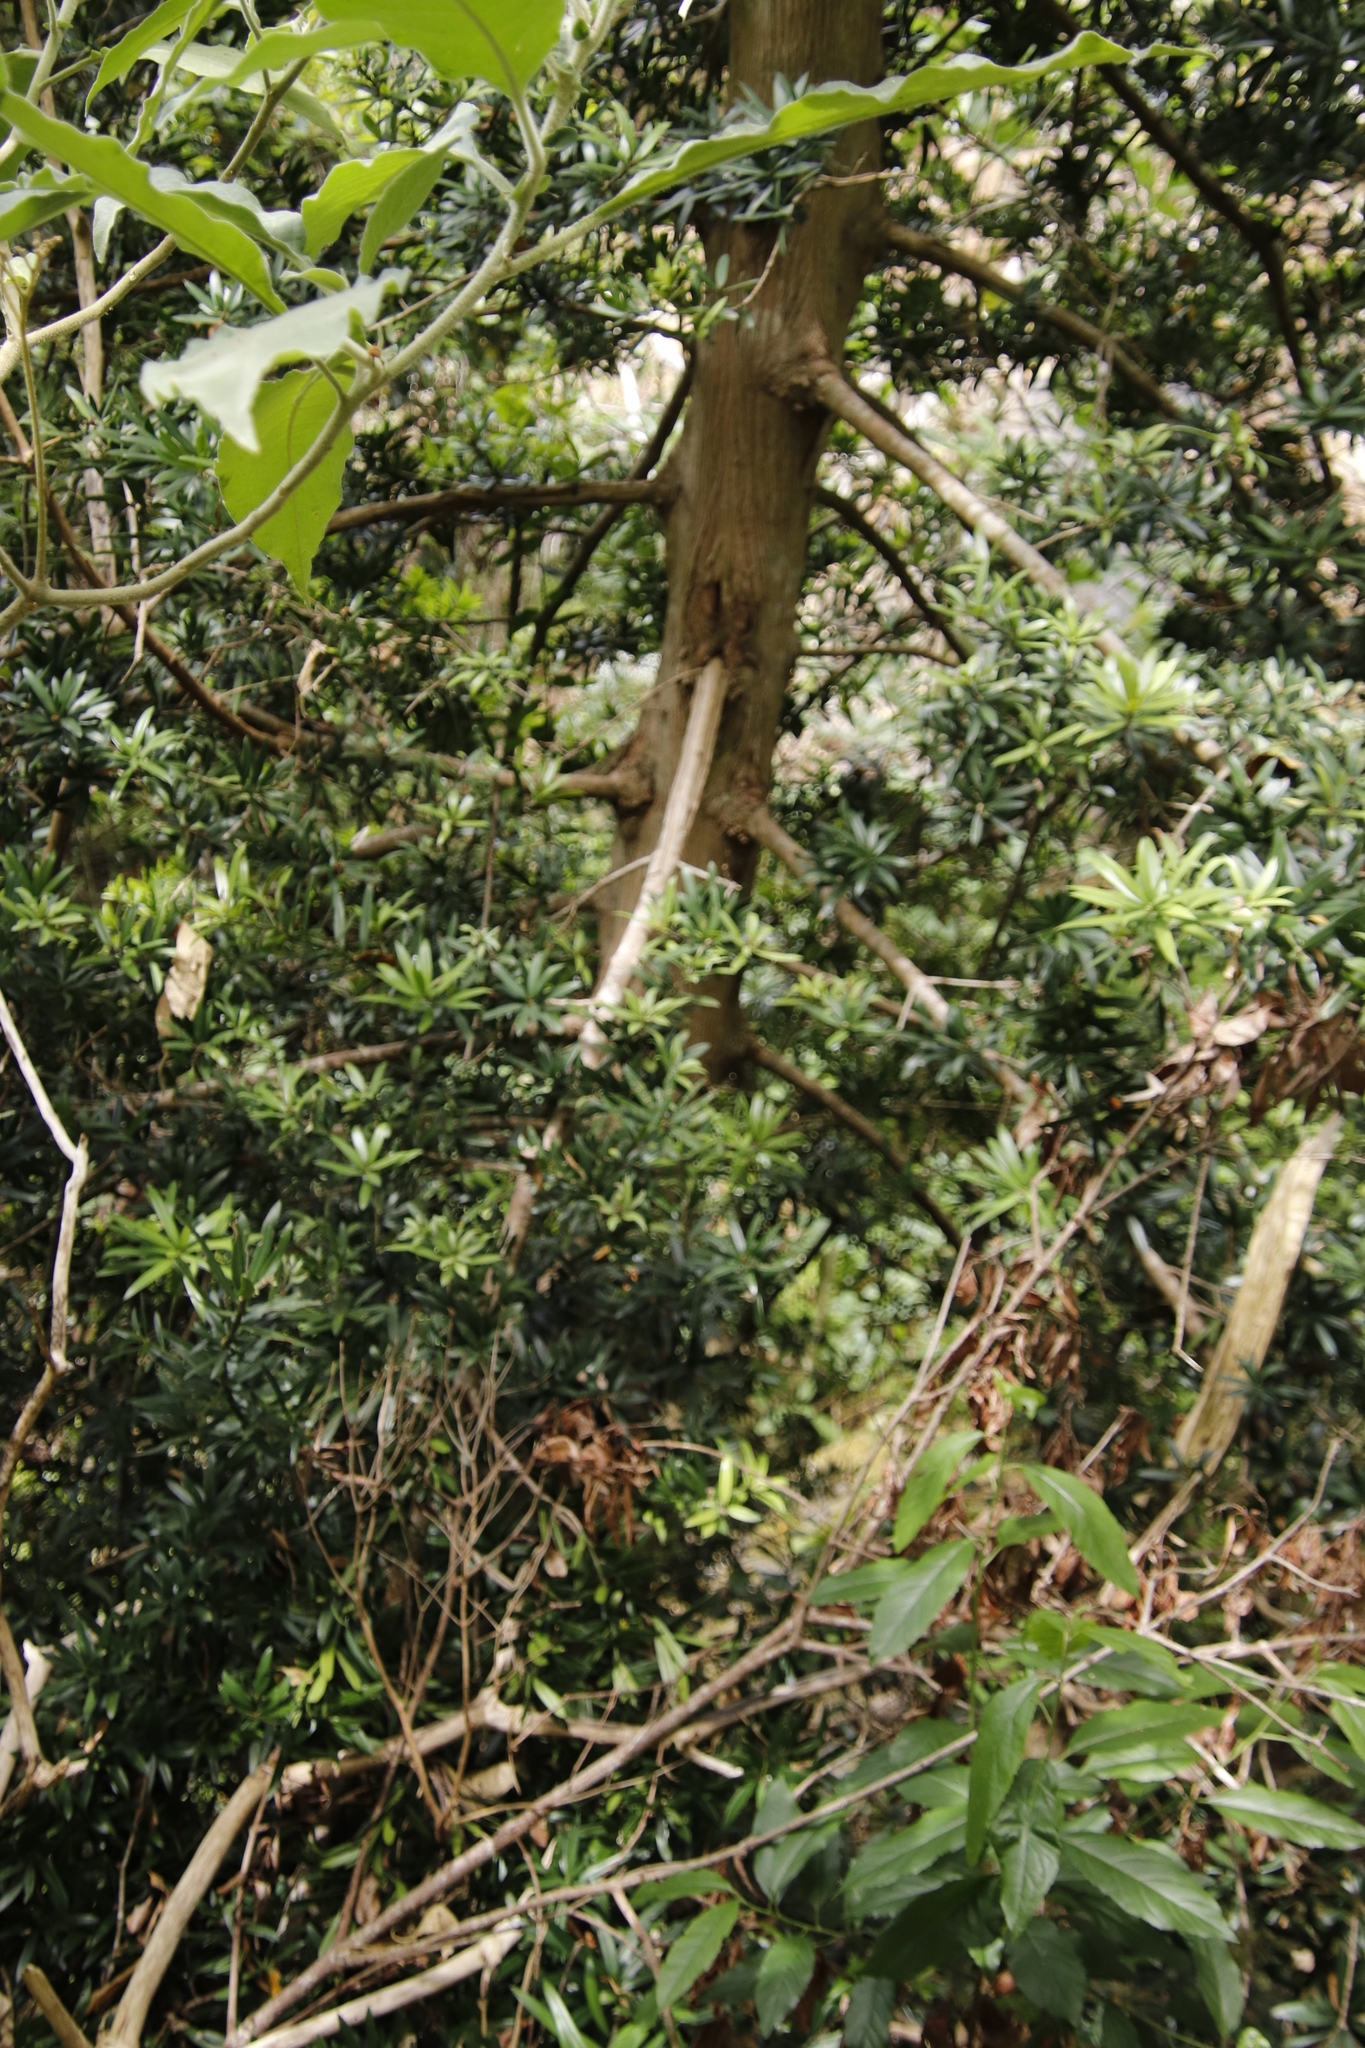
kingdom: Plantae
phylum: Tracheophyta
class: Pinopsida
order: Pinales
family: Podocarpaceae
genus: Podocarpus
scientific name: Podocarpus latifolius
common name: True yellowwood
